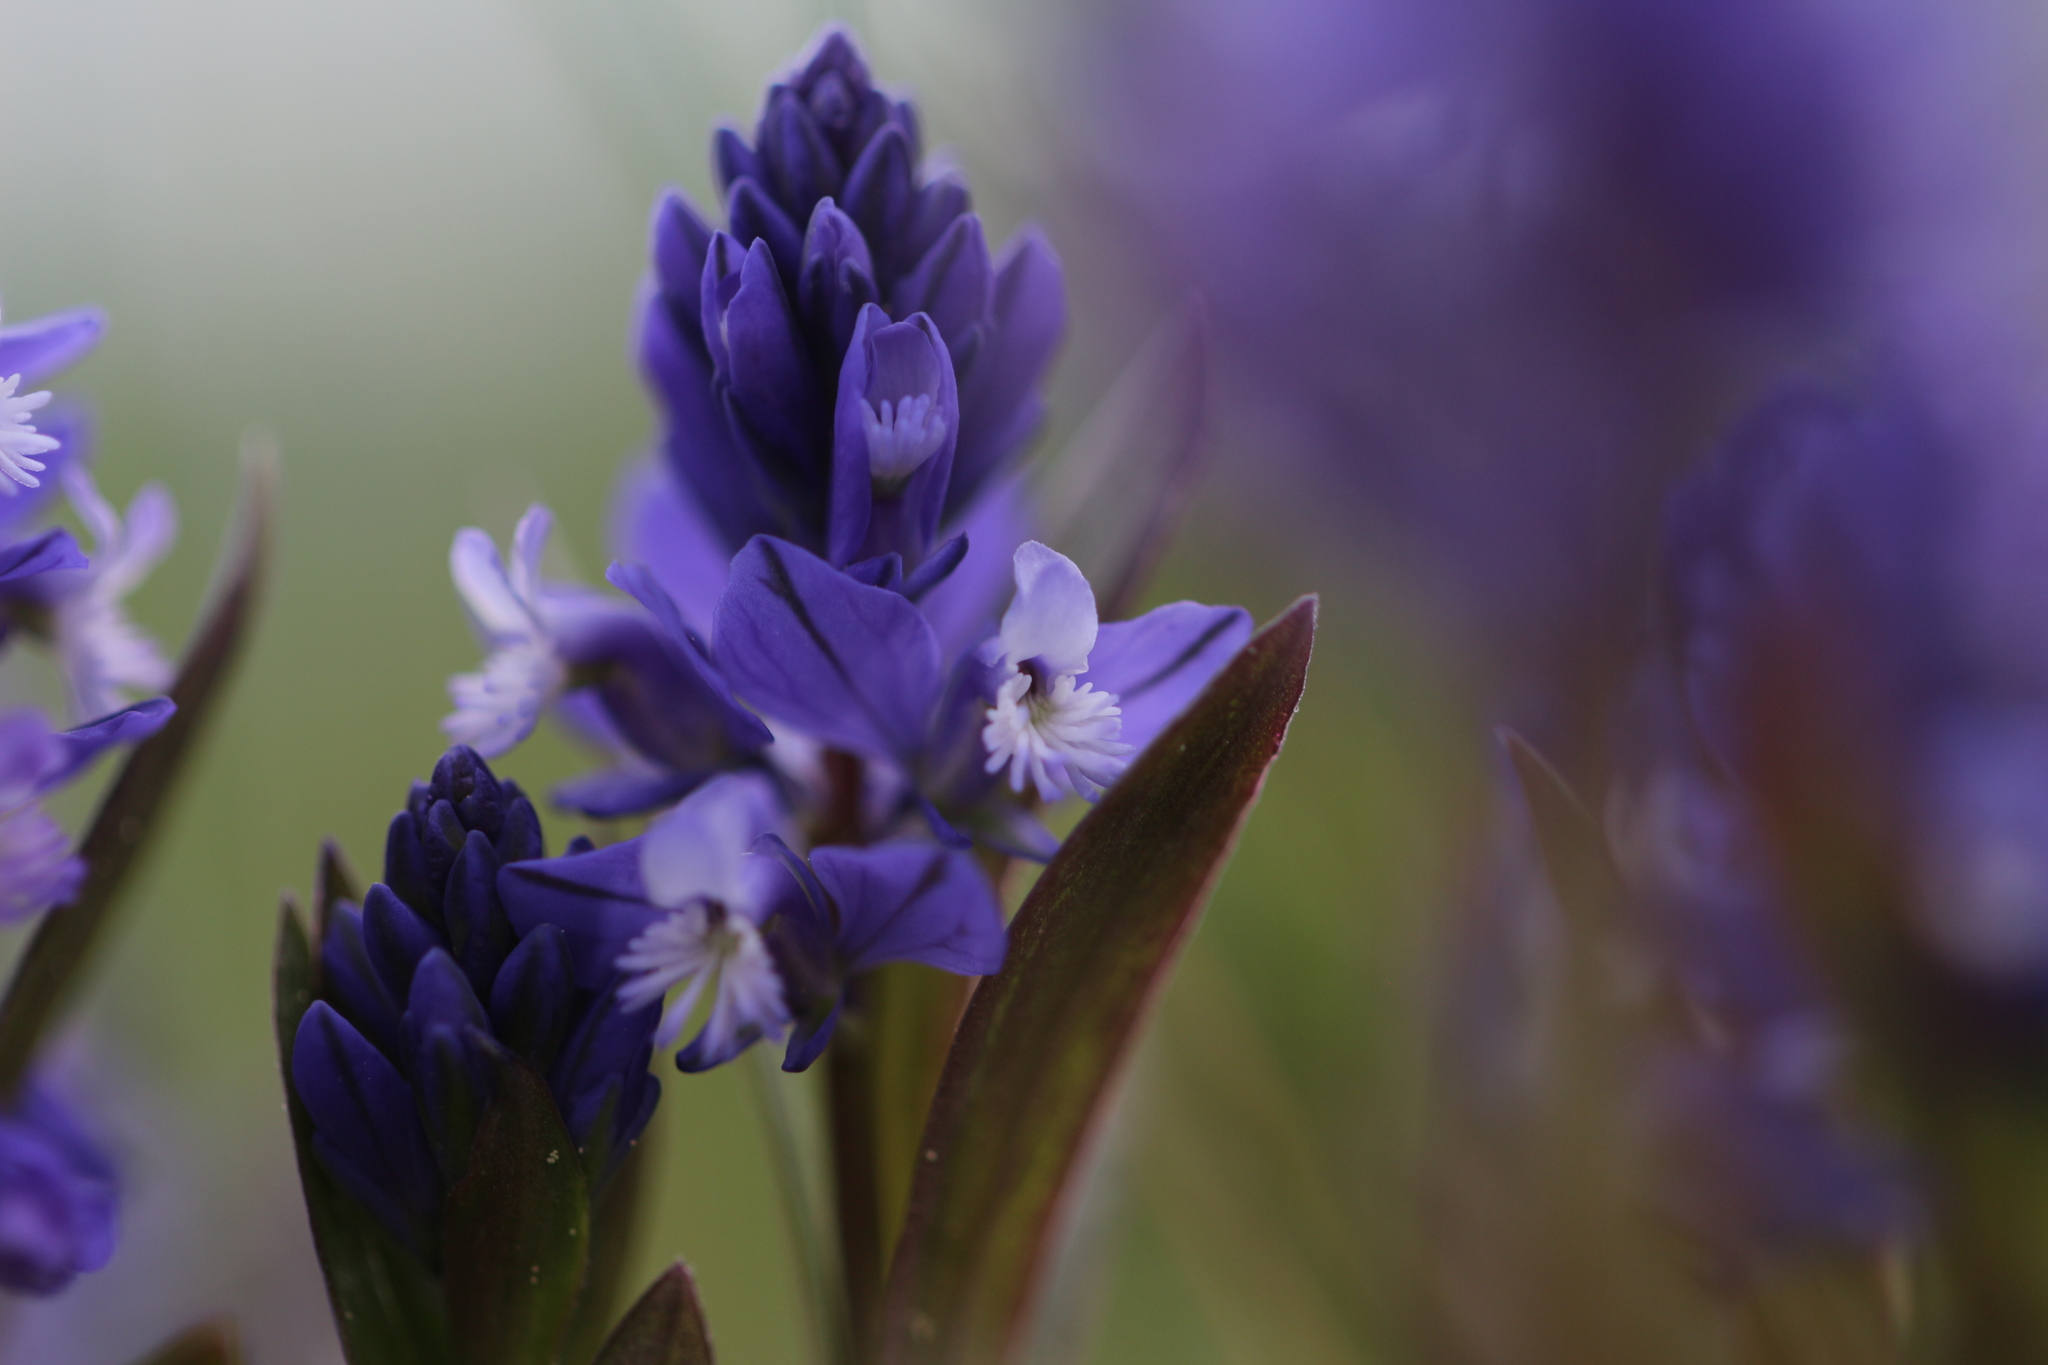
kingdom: Plantae
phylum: Tracheophyta
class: Magnoliopsida
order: Fabales
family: Polygalaceae
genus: Polygala
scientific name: Polygala vulgaris
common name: Common milkwort
